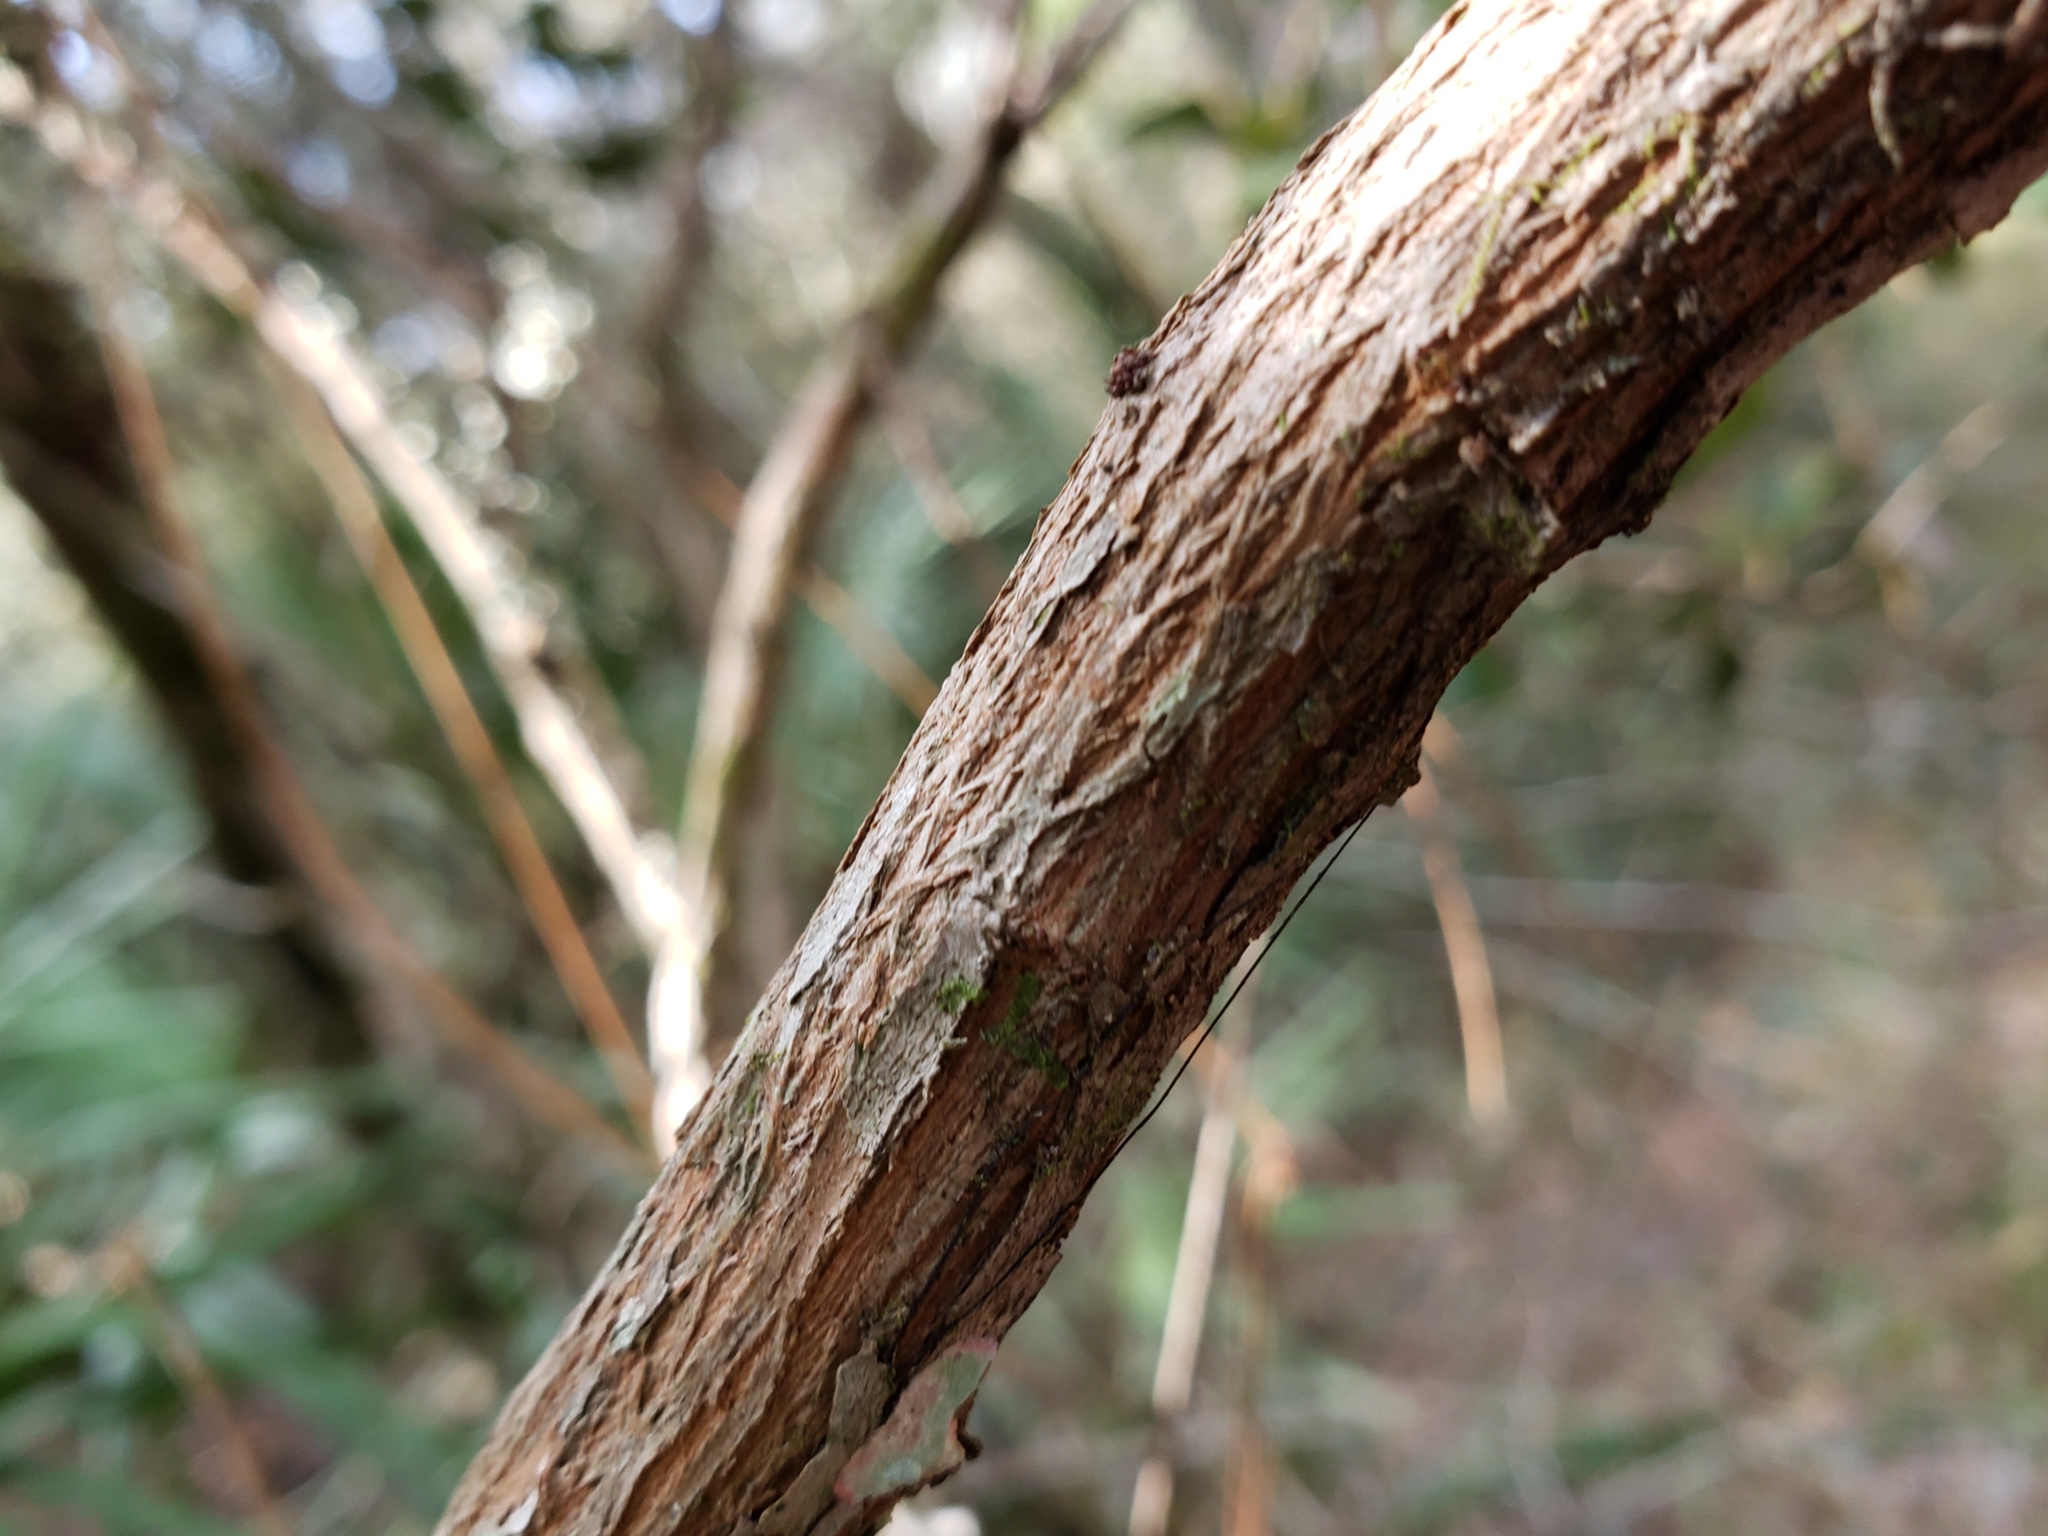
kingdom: Plantae
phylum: Tracheophyta
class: Magnoliopsida
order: Ericales
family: Ericaceae
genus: Lyonia
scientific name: Lyonia ferruginea
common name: Rusty lyonia
